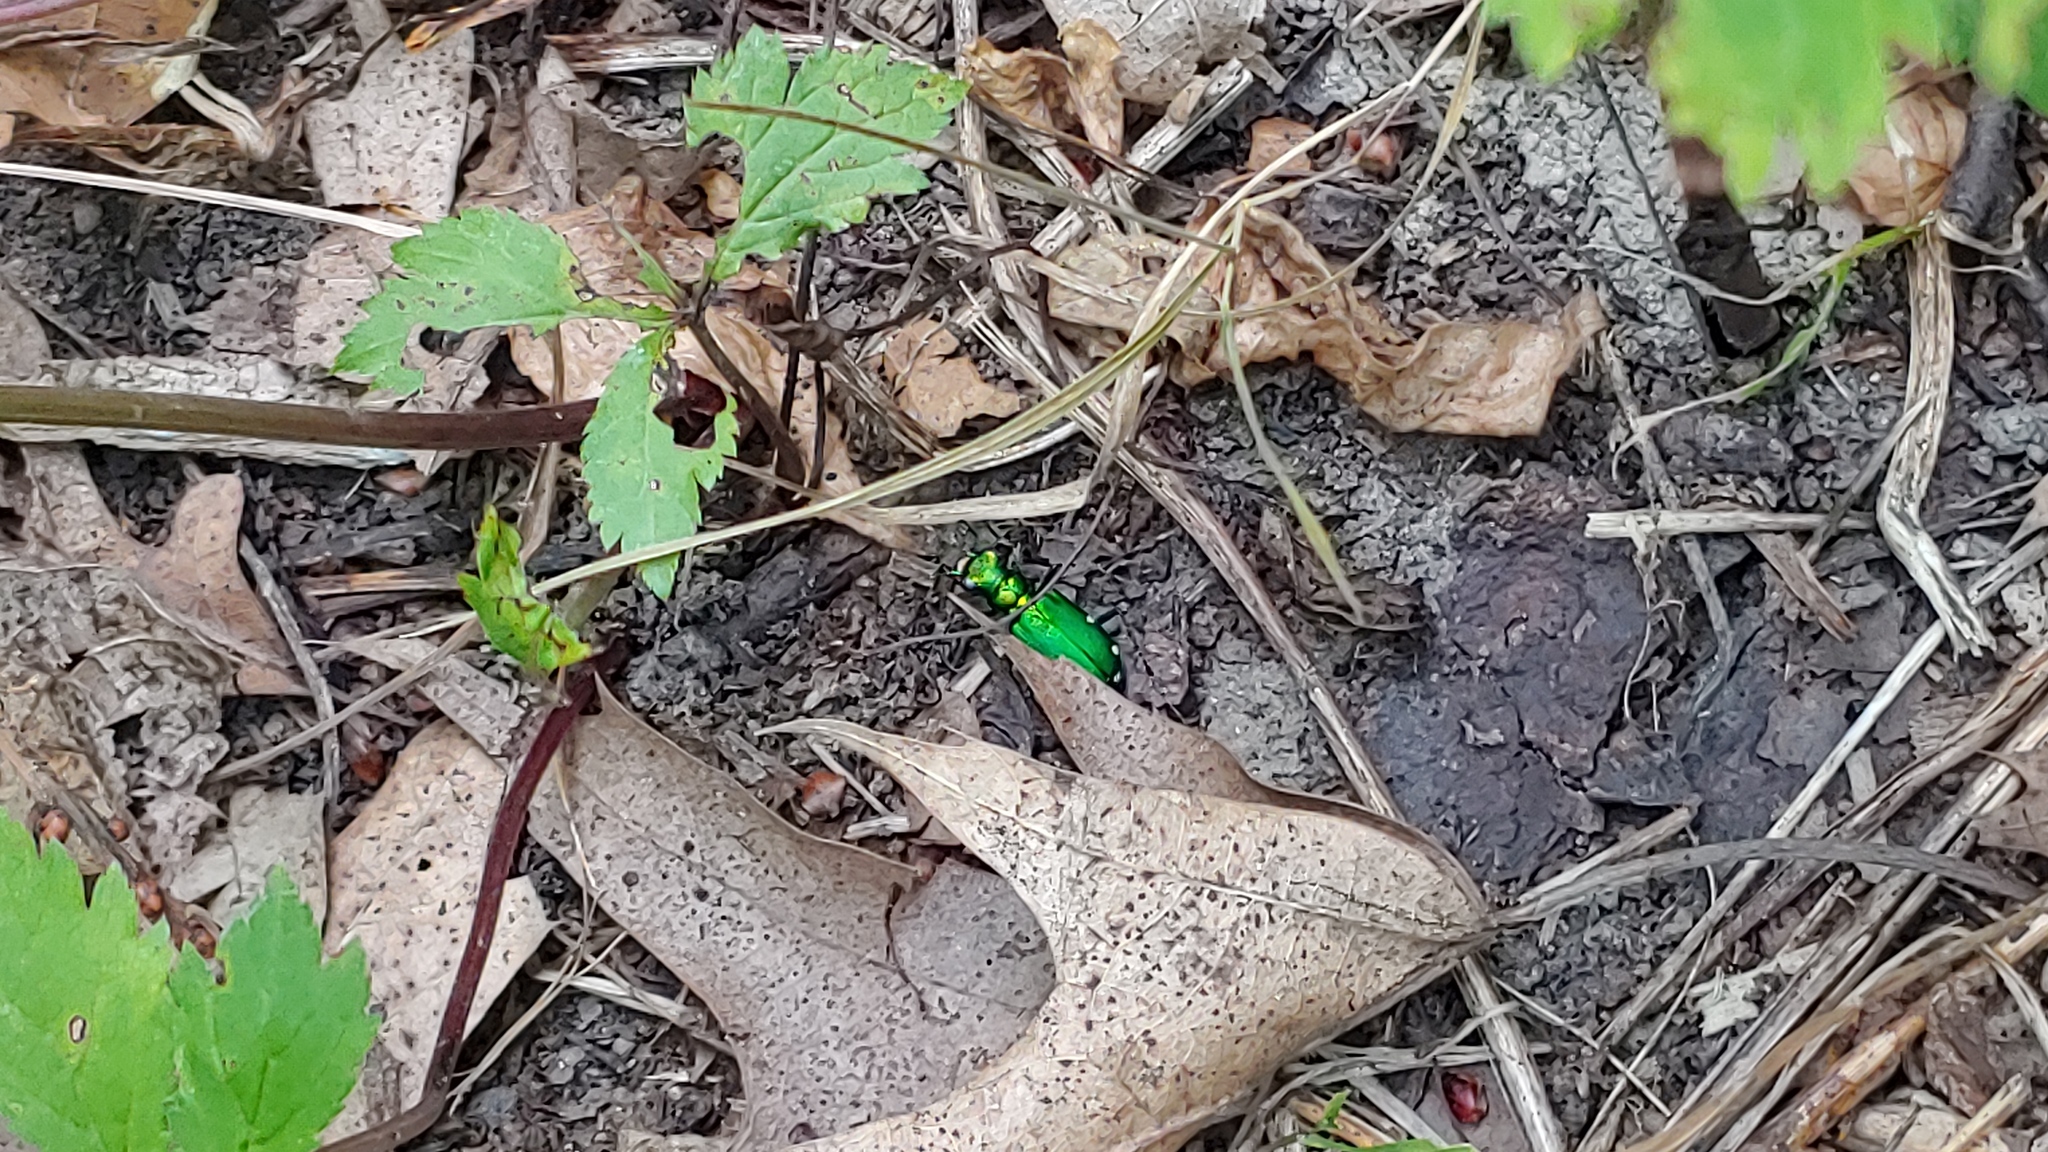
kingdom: Animalia
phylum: Arthropoda
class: Insecta
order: Coleoptera
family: Carabidae
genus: Cicindela
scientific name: Cicindela sexguttata
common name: Six-spotted tiger beetle
